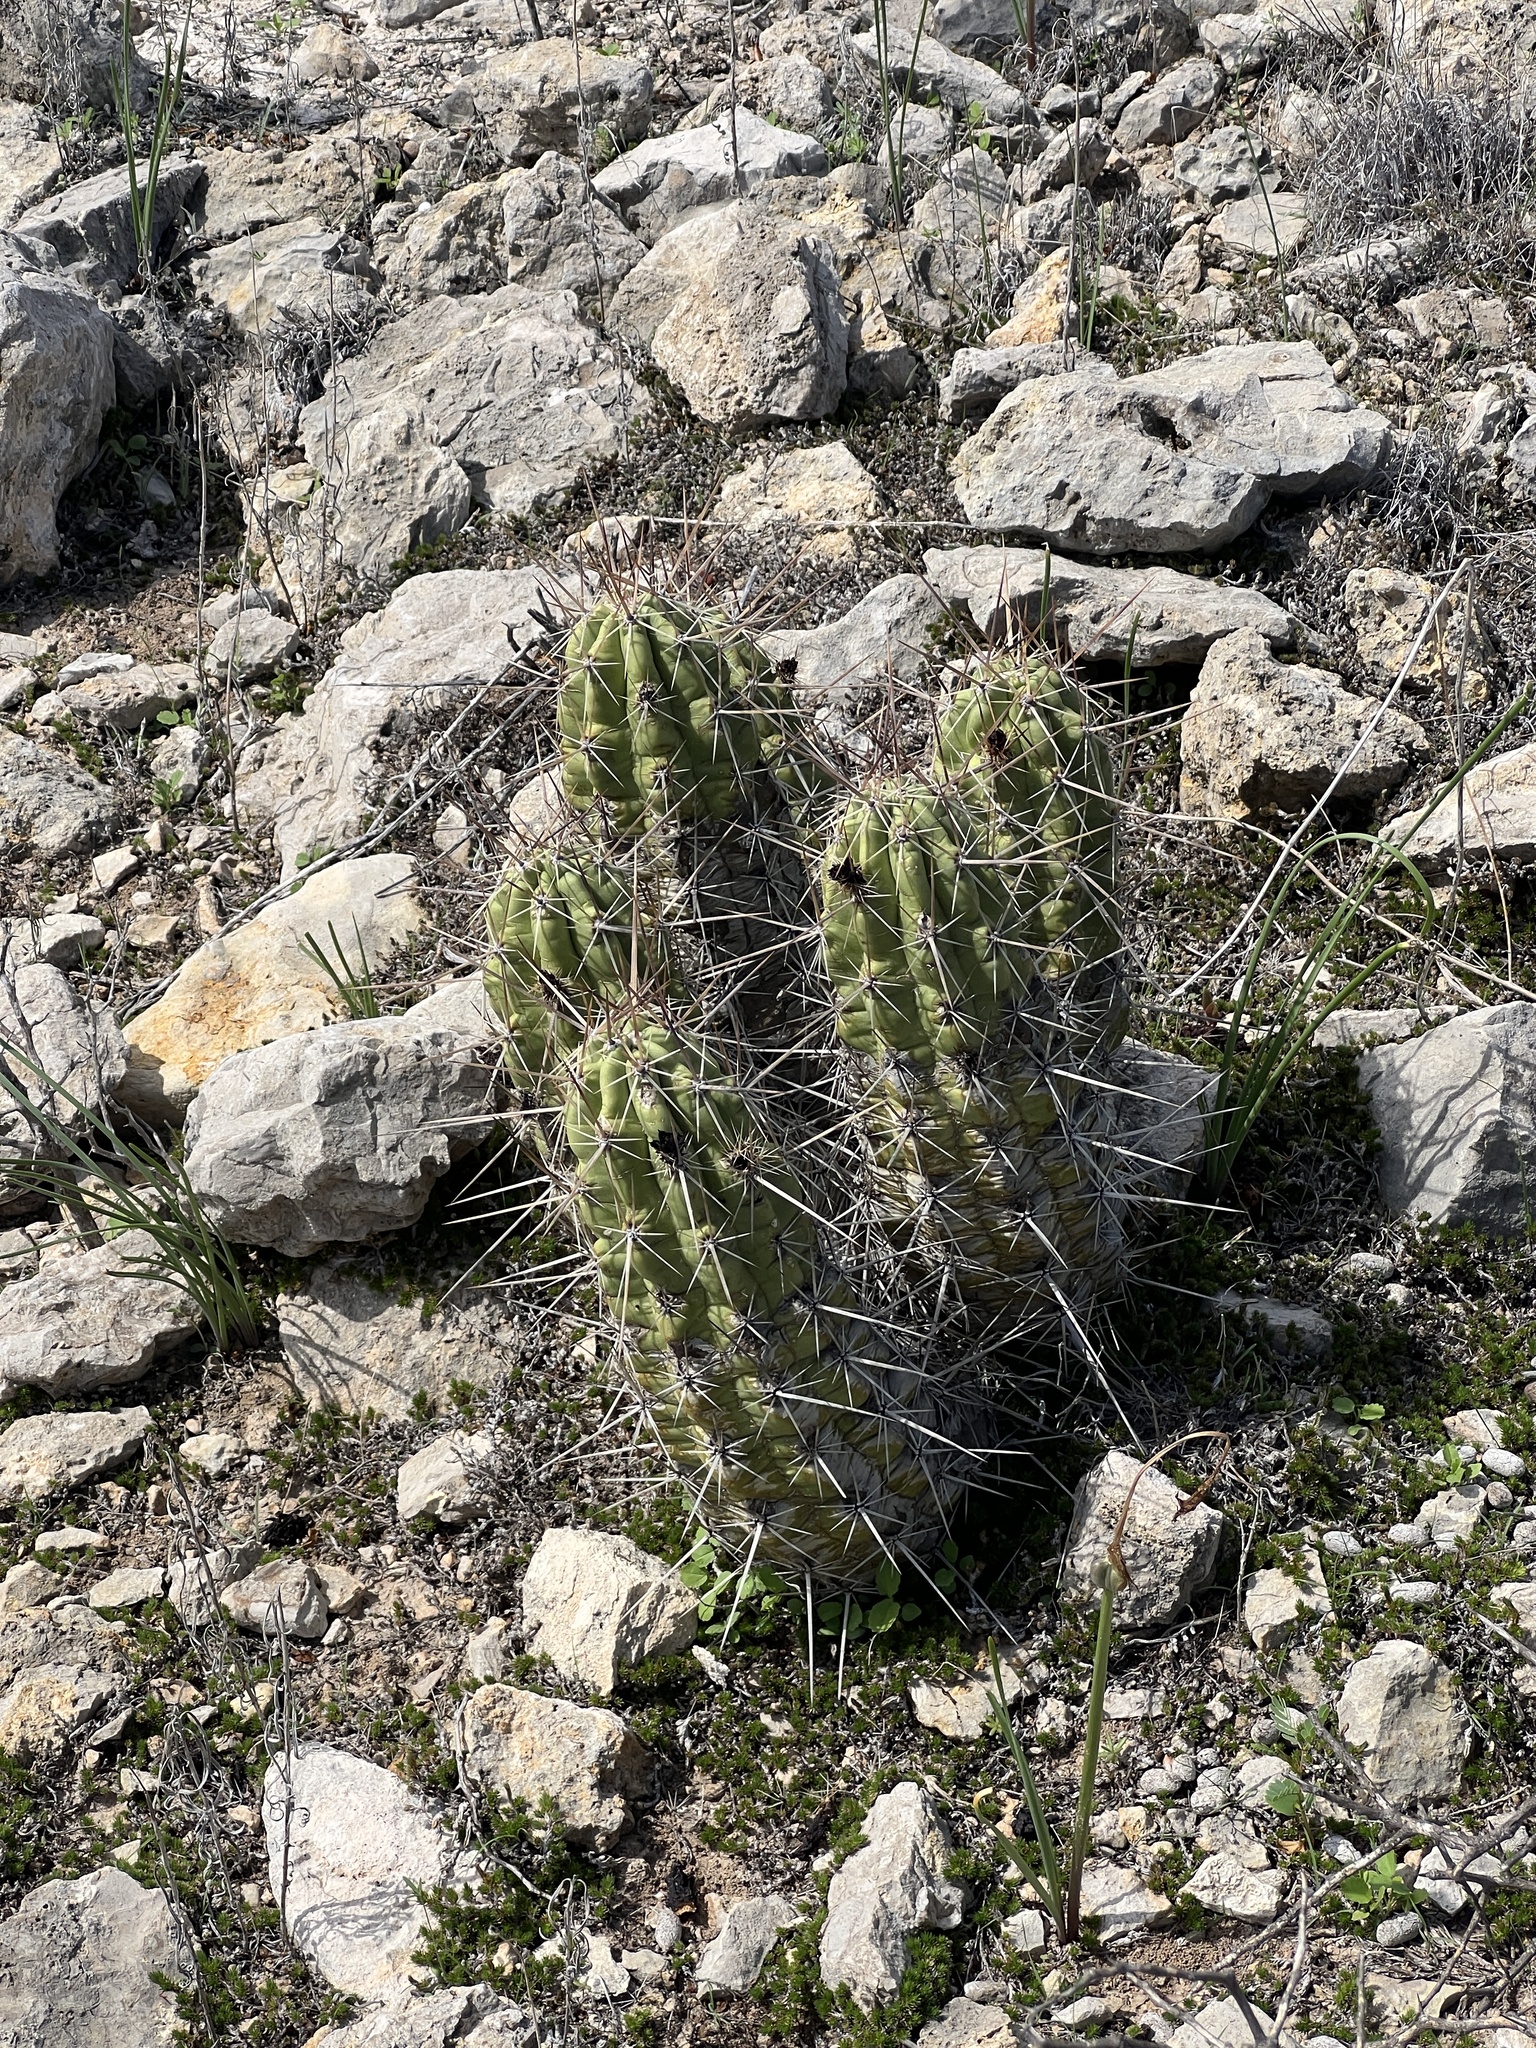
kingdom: Plantae
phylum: Tracheophyta
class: Magnoliopsida
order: Caryophyllales
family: Cactaceae
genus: Echinocereus
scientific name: Echinocereus enneacanthus
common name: Pitaya
